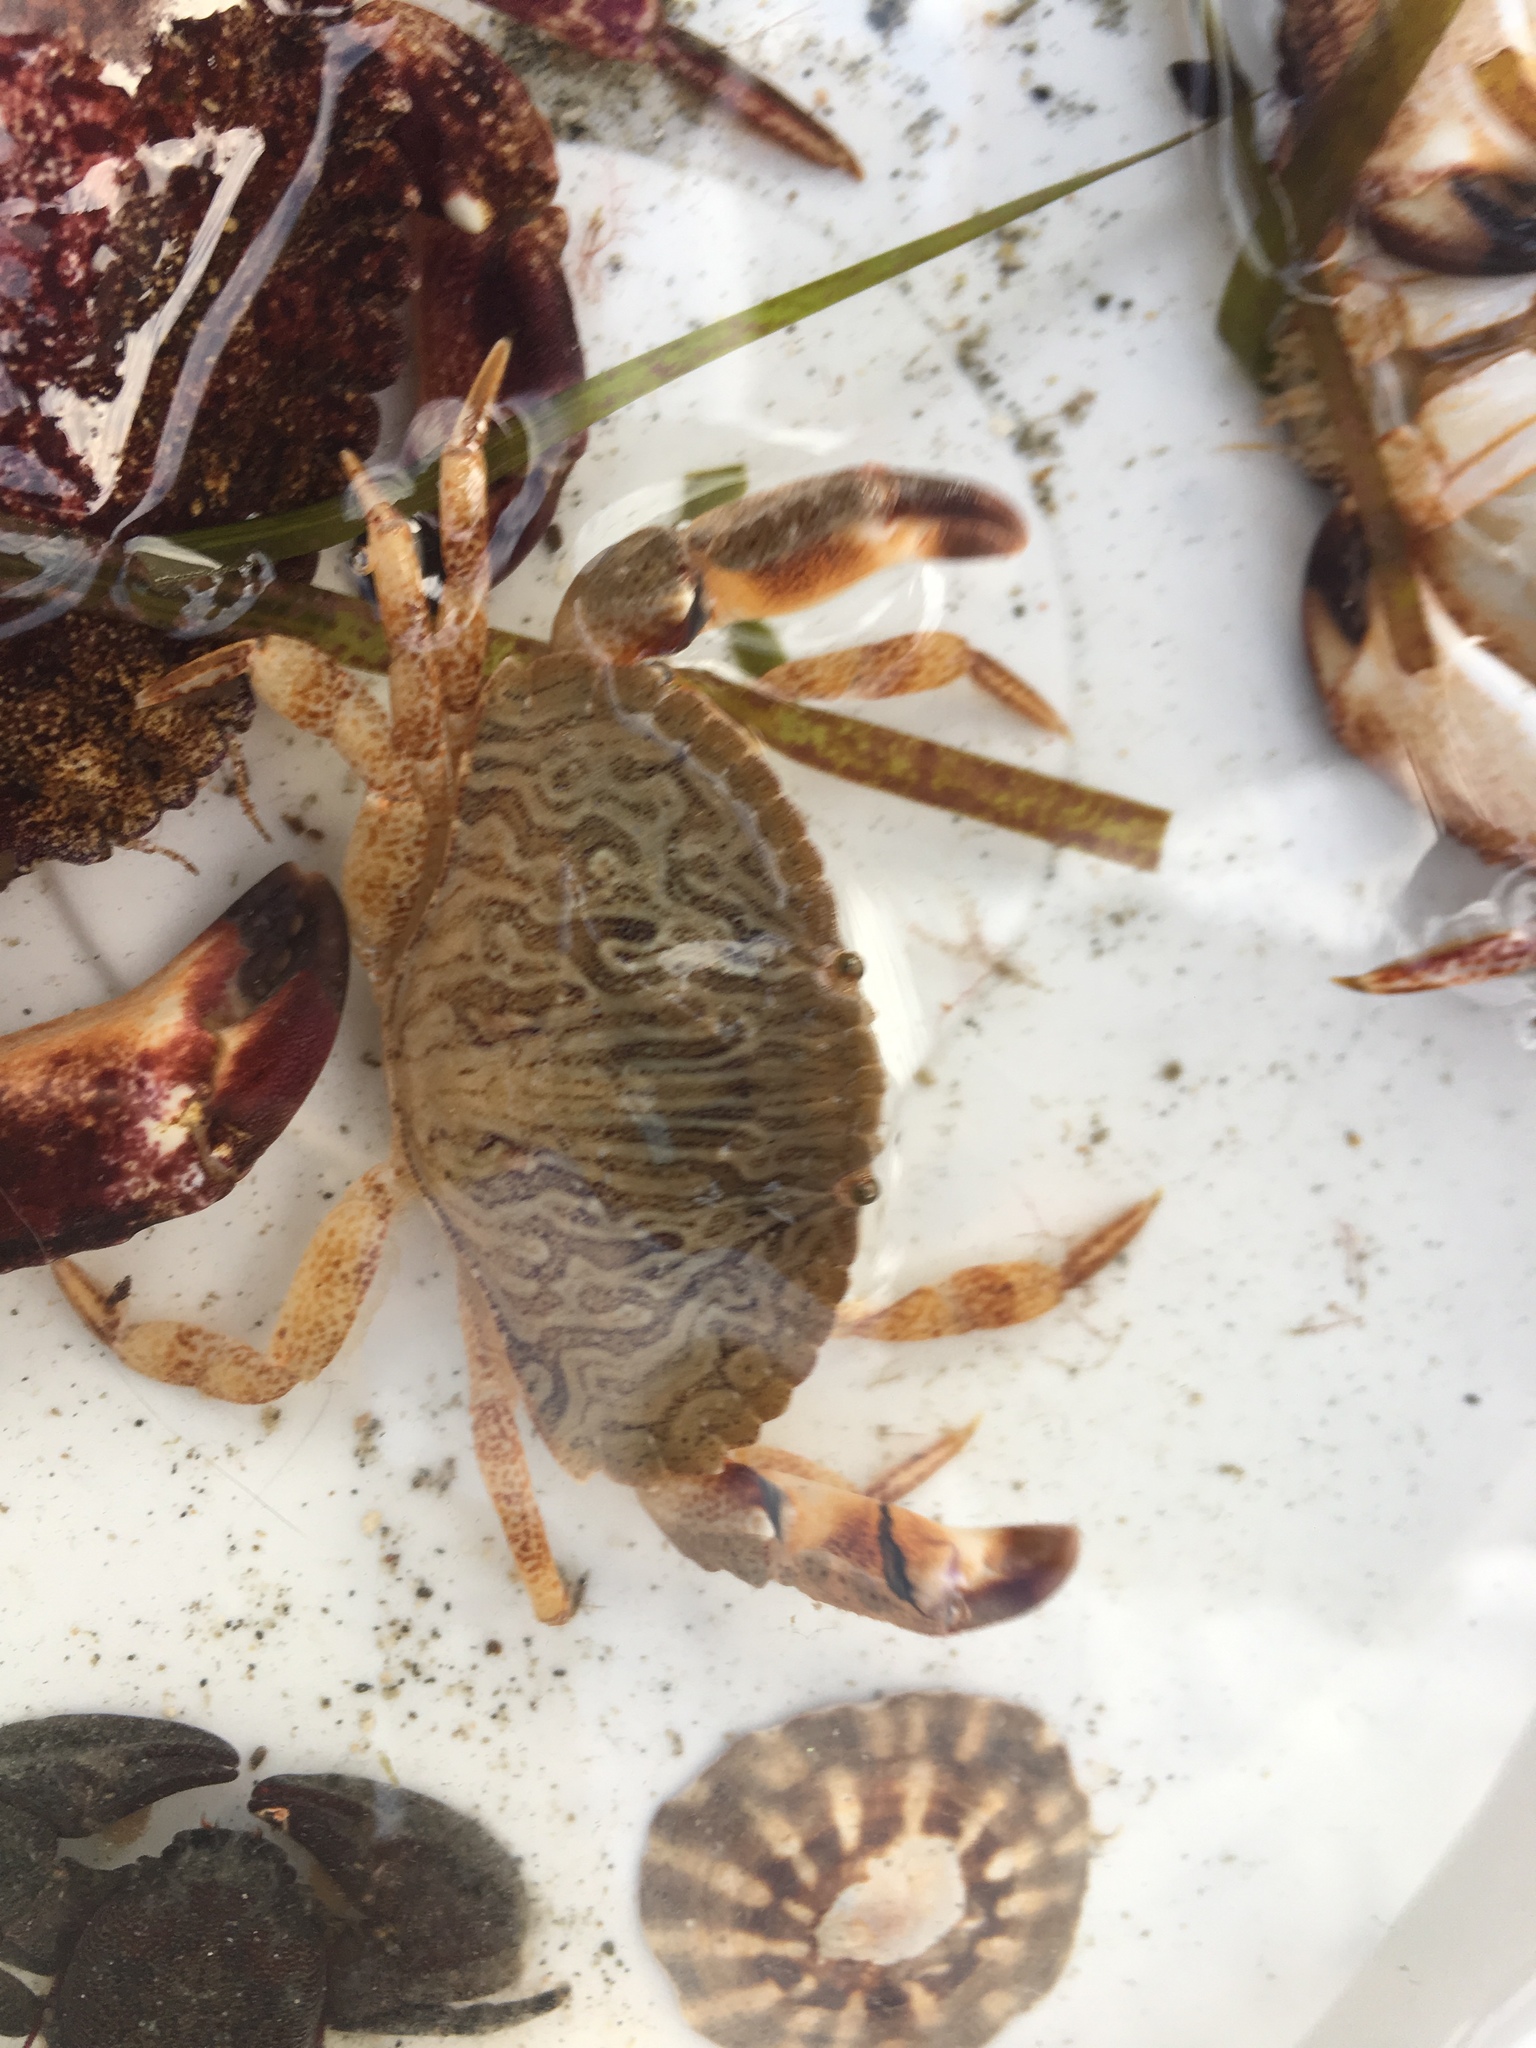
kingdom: Animalia
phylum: Arthropoda
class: Malacostraca
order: Decapoda
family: Cancridae
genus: Cancer
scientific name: Cancer productus
